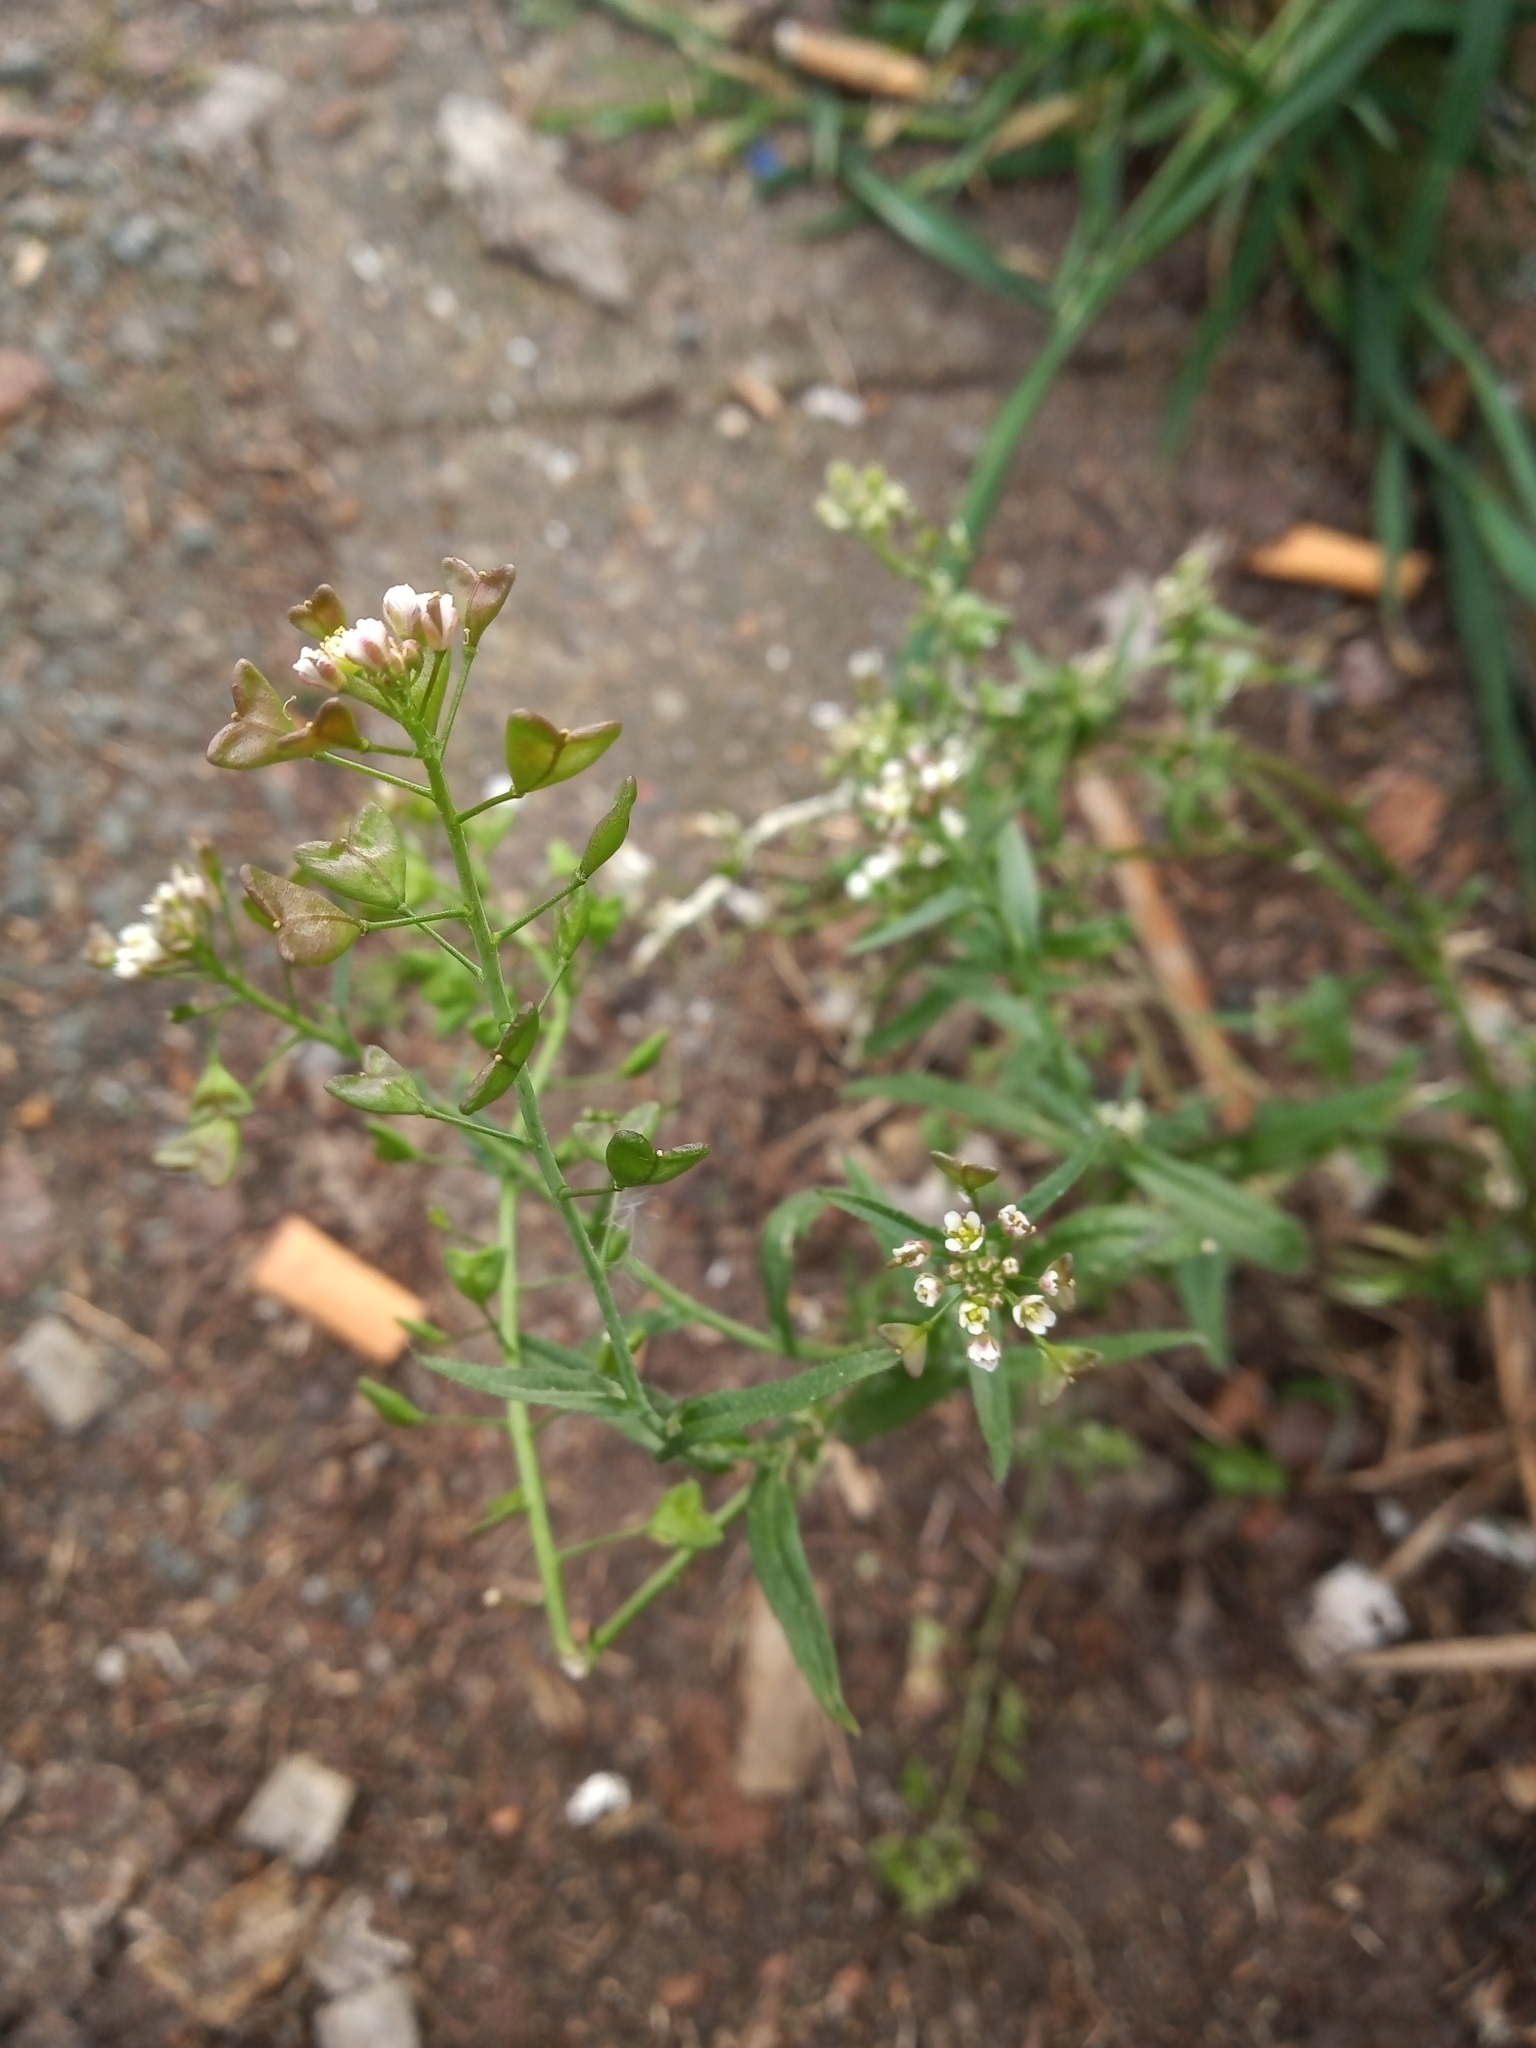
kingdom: Plantae
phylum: Tracheophyta
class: Magnoliopsida
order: Brassicales
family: Brassicaceae
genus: Capsella
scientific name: Capsella bursa-pastoris
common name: Shepherd's purse
